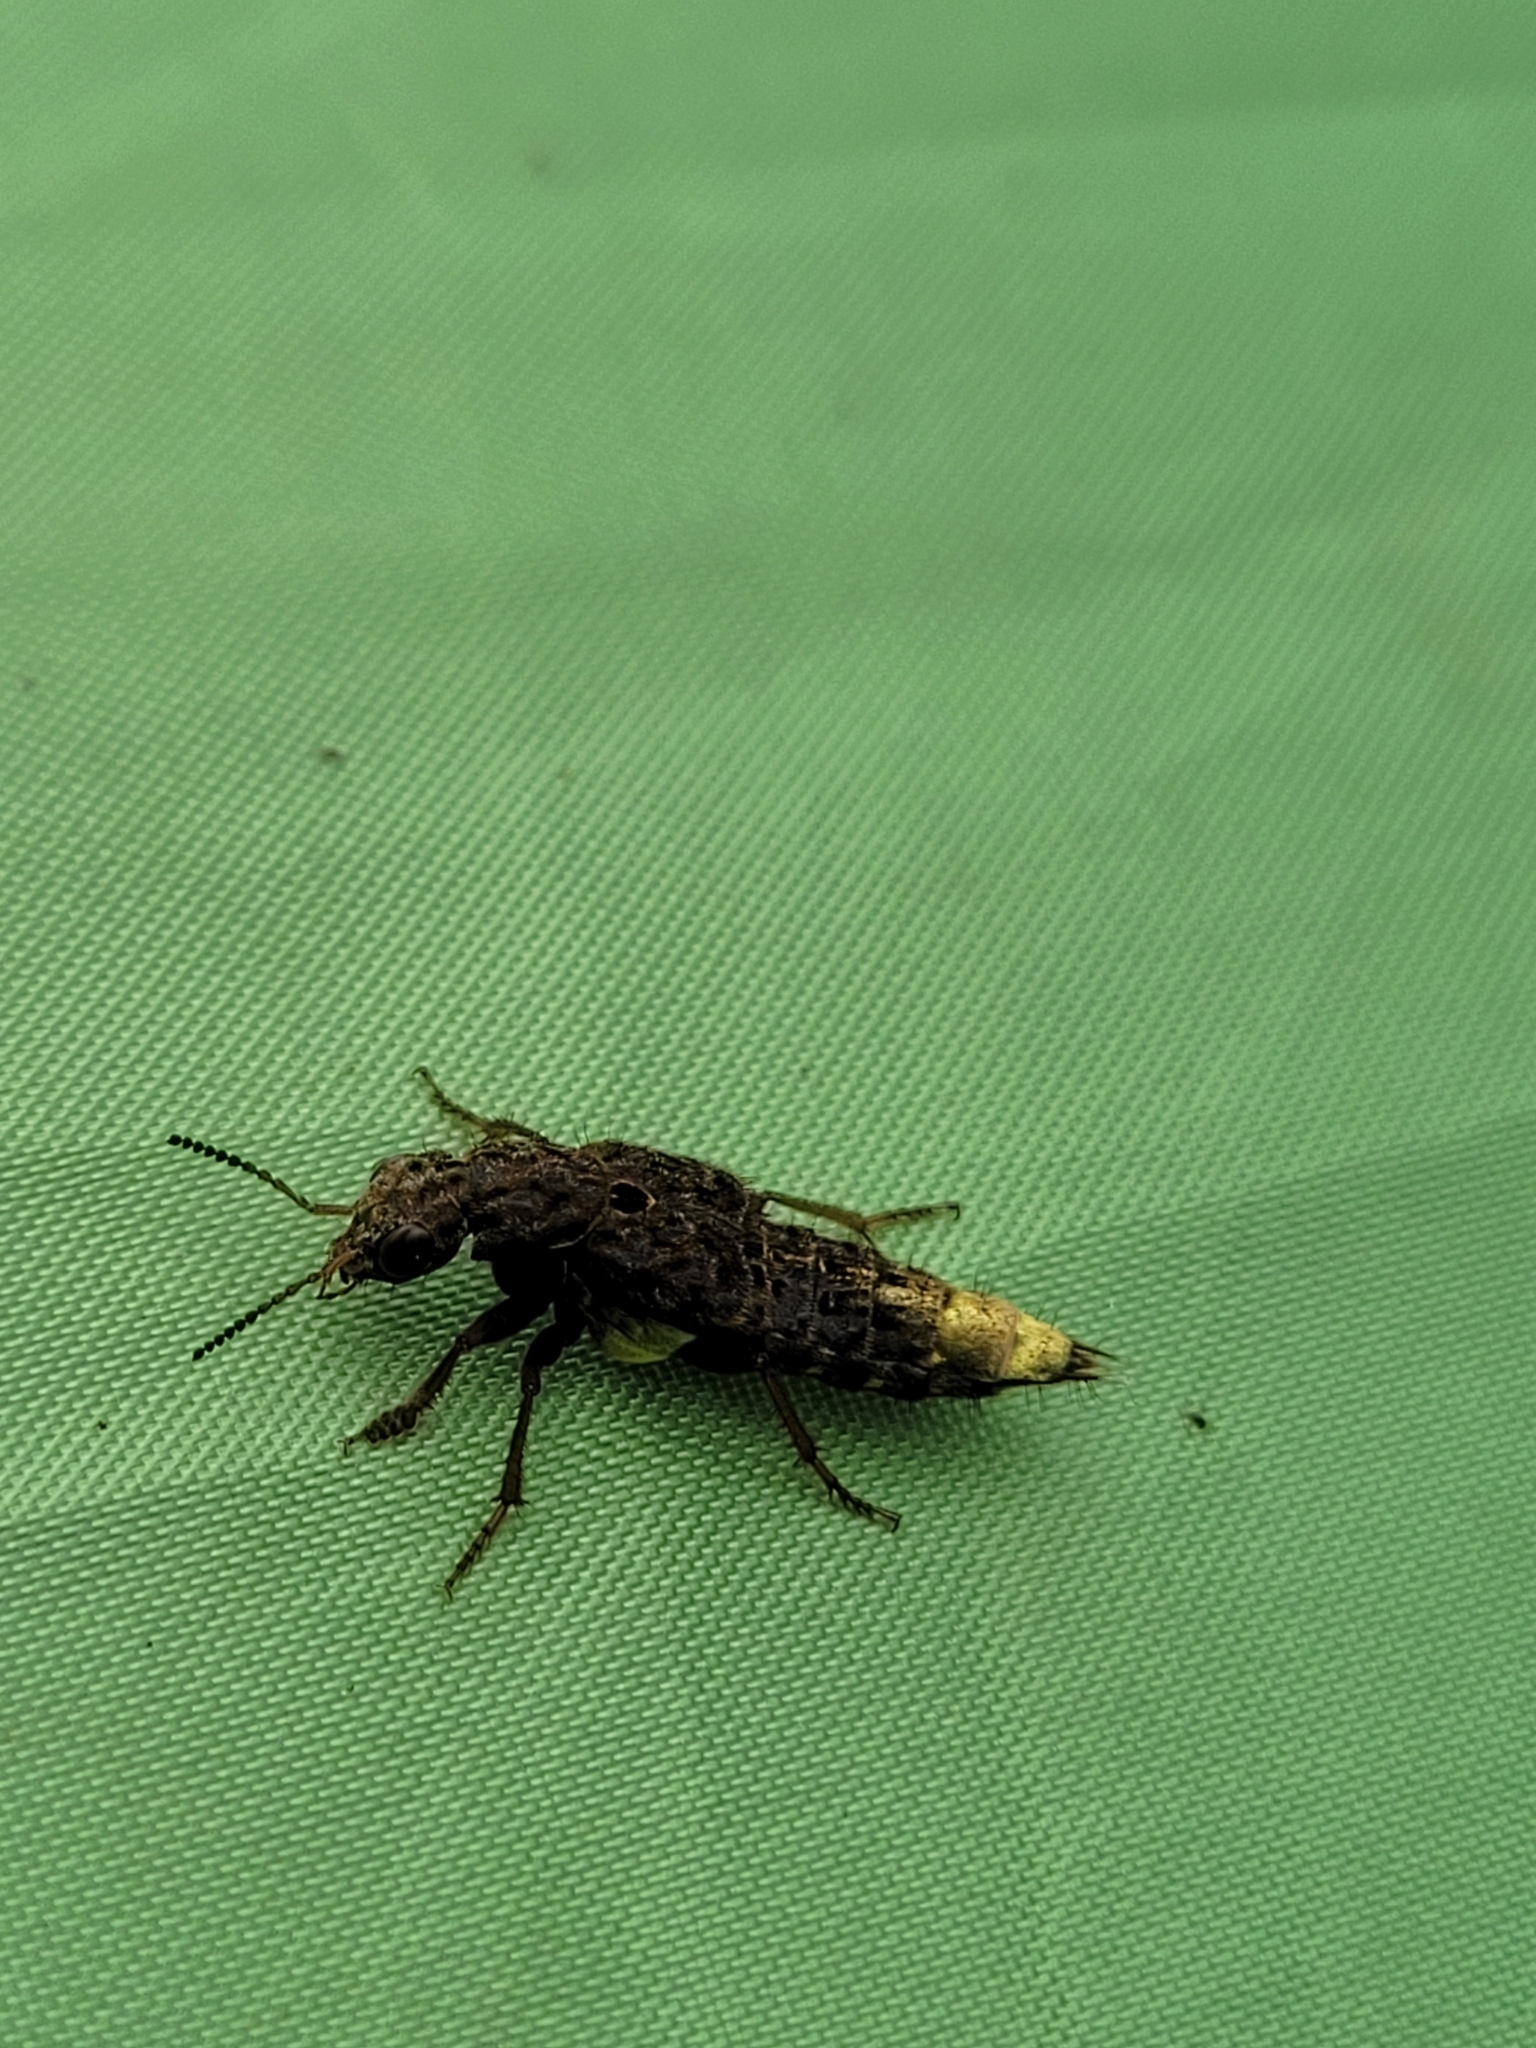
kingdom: Animalia
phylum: Arthropoda
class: Insecta
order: Coleoptera
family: Staphylinidae
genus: Ontholestes
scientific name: Ontholestes cingulatus
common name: Gold-and-brown rove beetle
